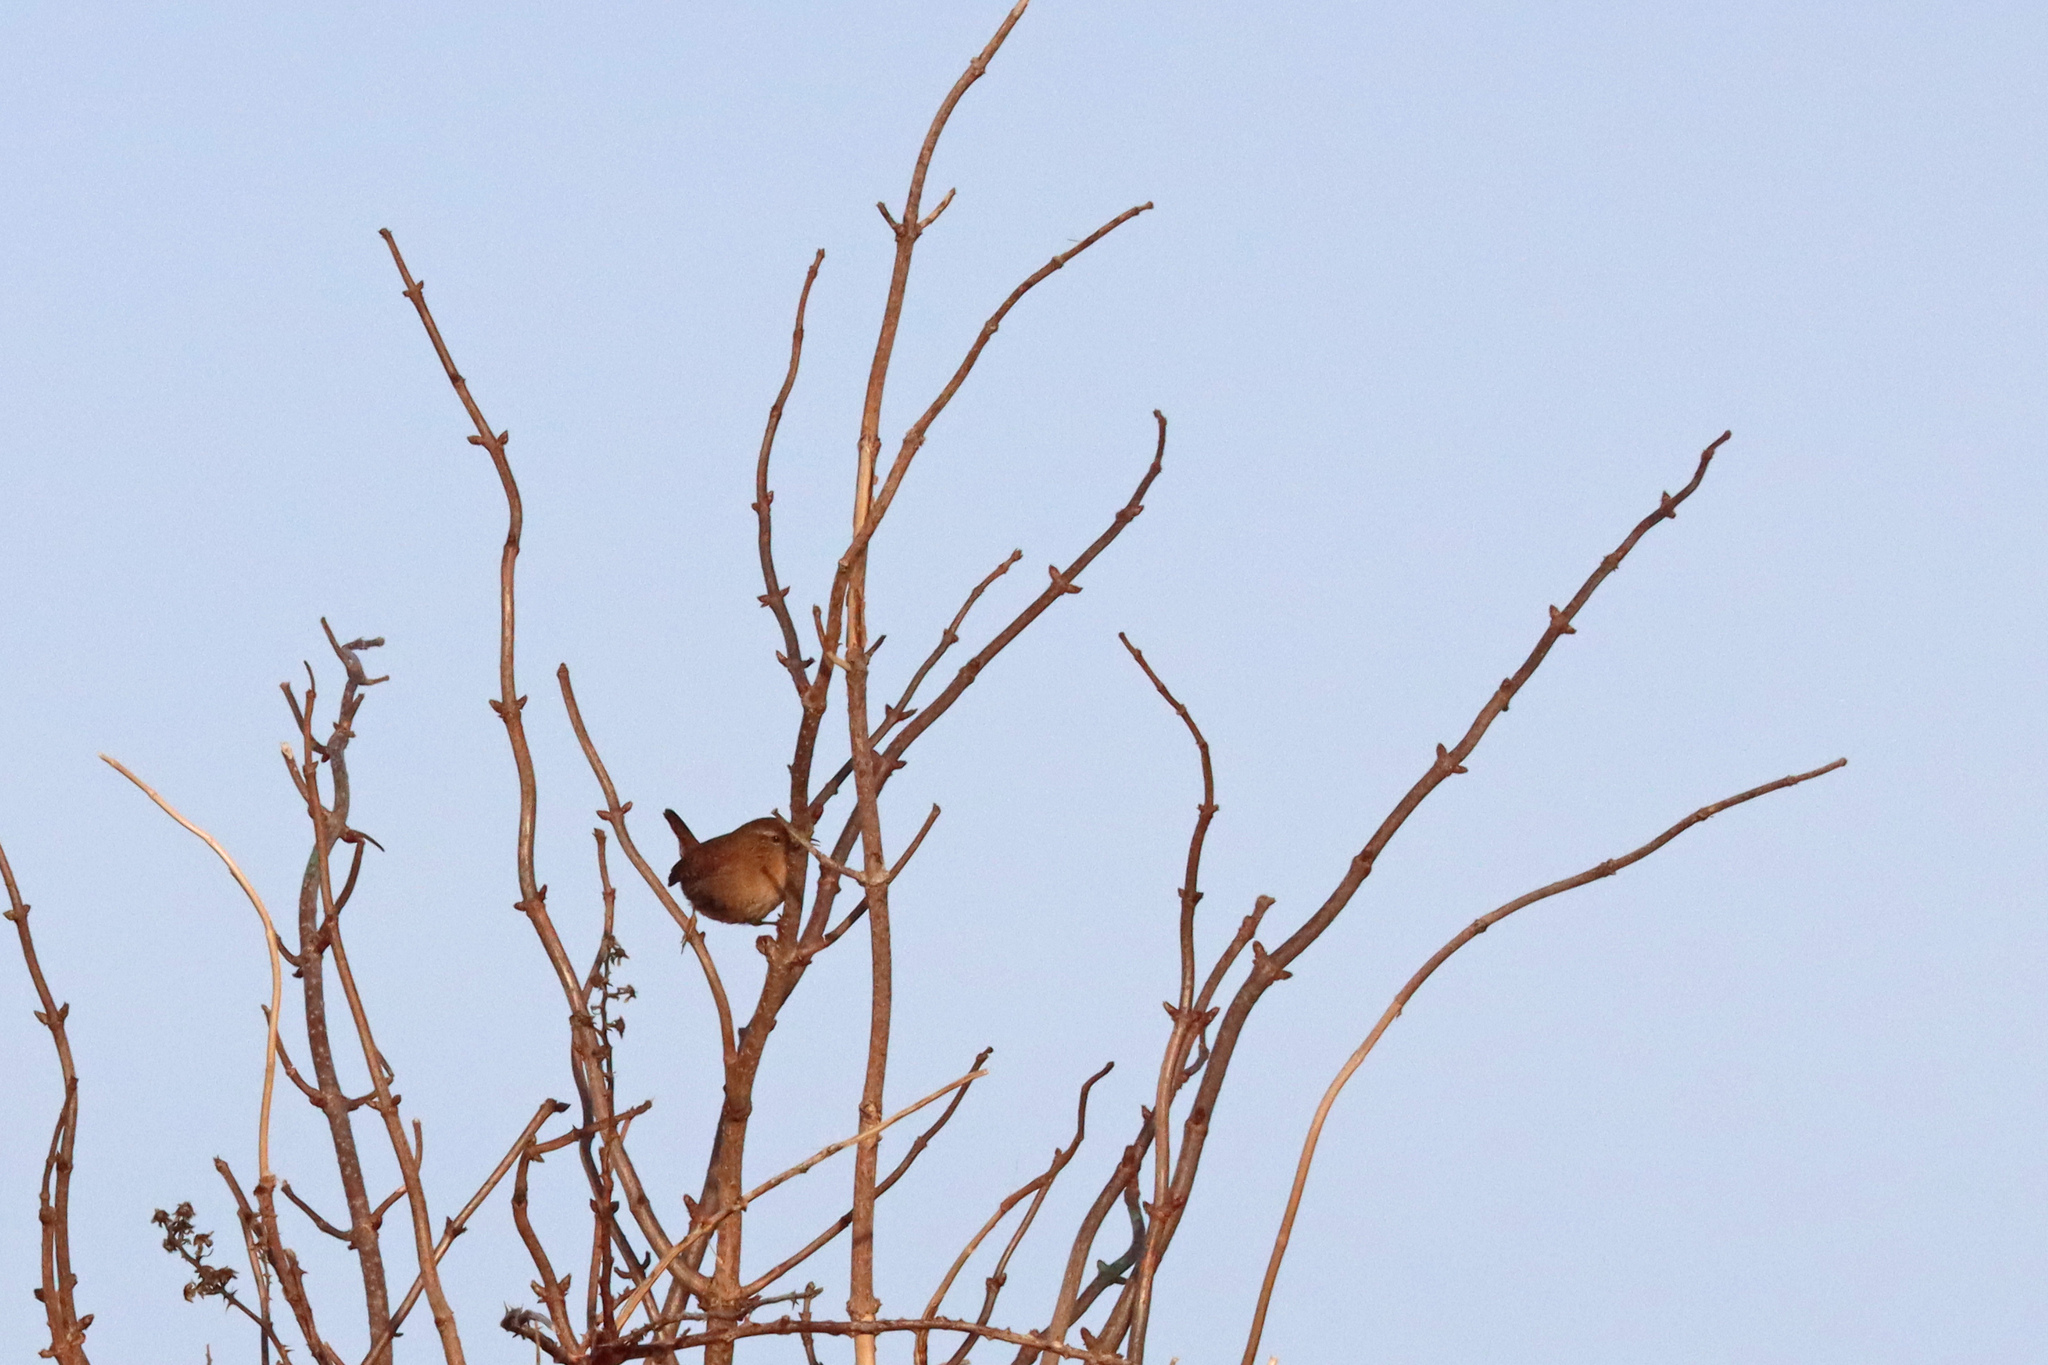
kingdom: Animalia
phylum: Chordata
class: Aves
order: Passeriformes
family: Troglodytidae
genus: Troglodytes
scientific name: Troglodytes troglodytes
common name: Eurasian wren
